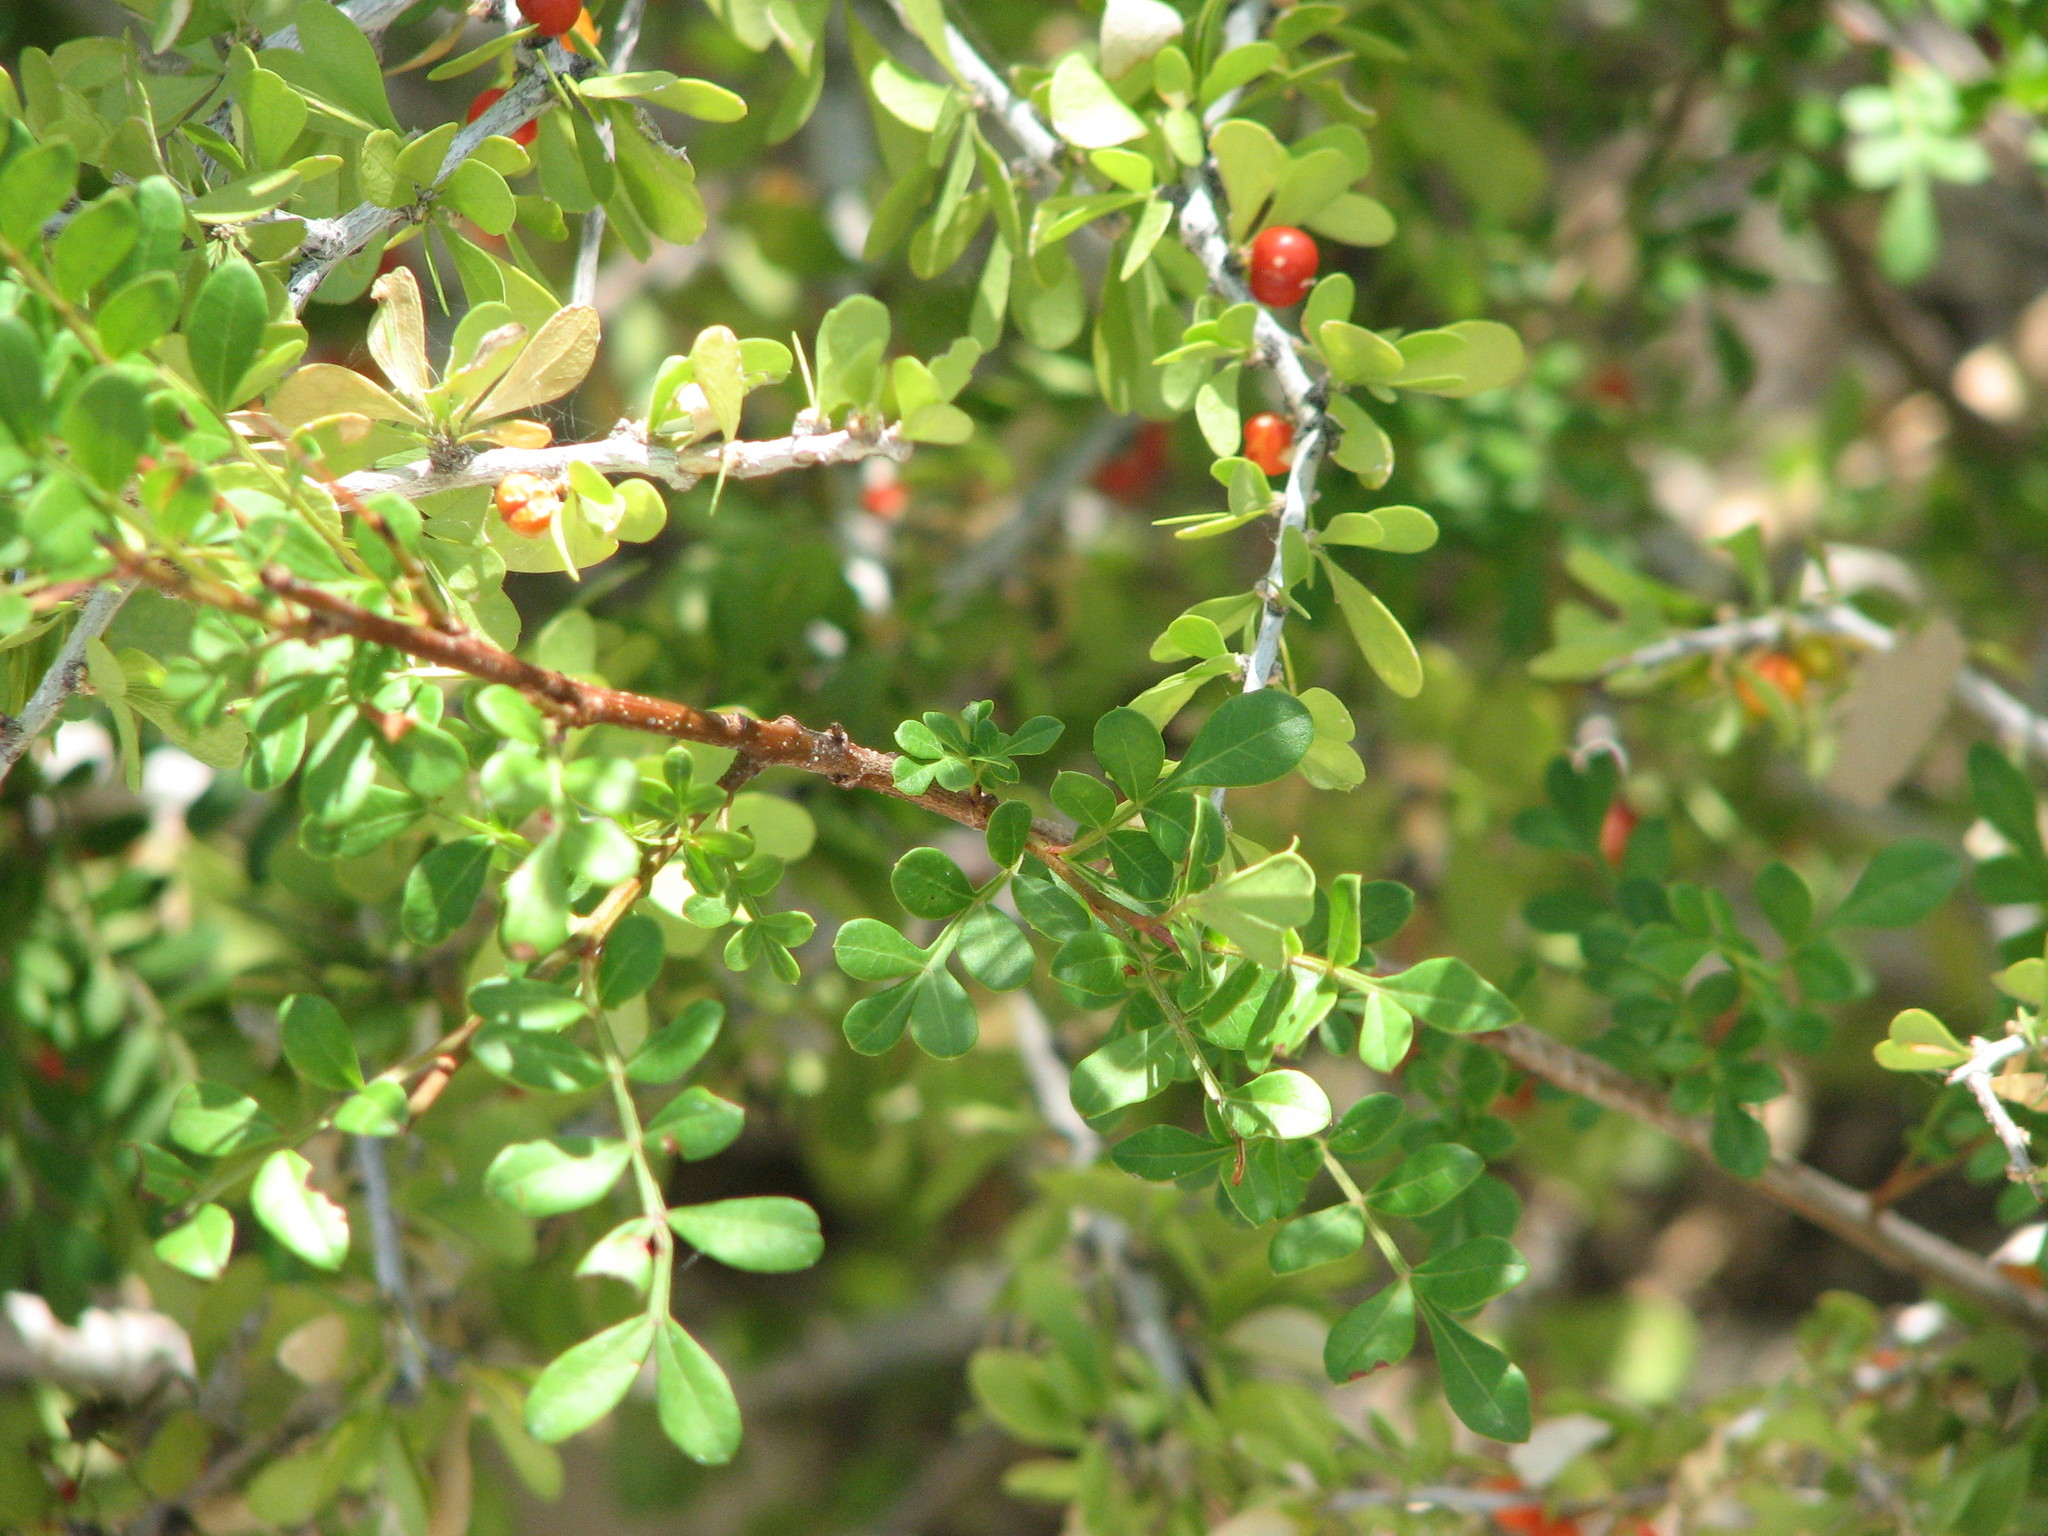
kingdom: Plantae
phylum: Tracheophyta
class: Magnoliopsida
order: Celastrales
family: Celastraceae
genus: Schaefferia
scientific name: Schaefferia cuneifolia
